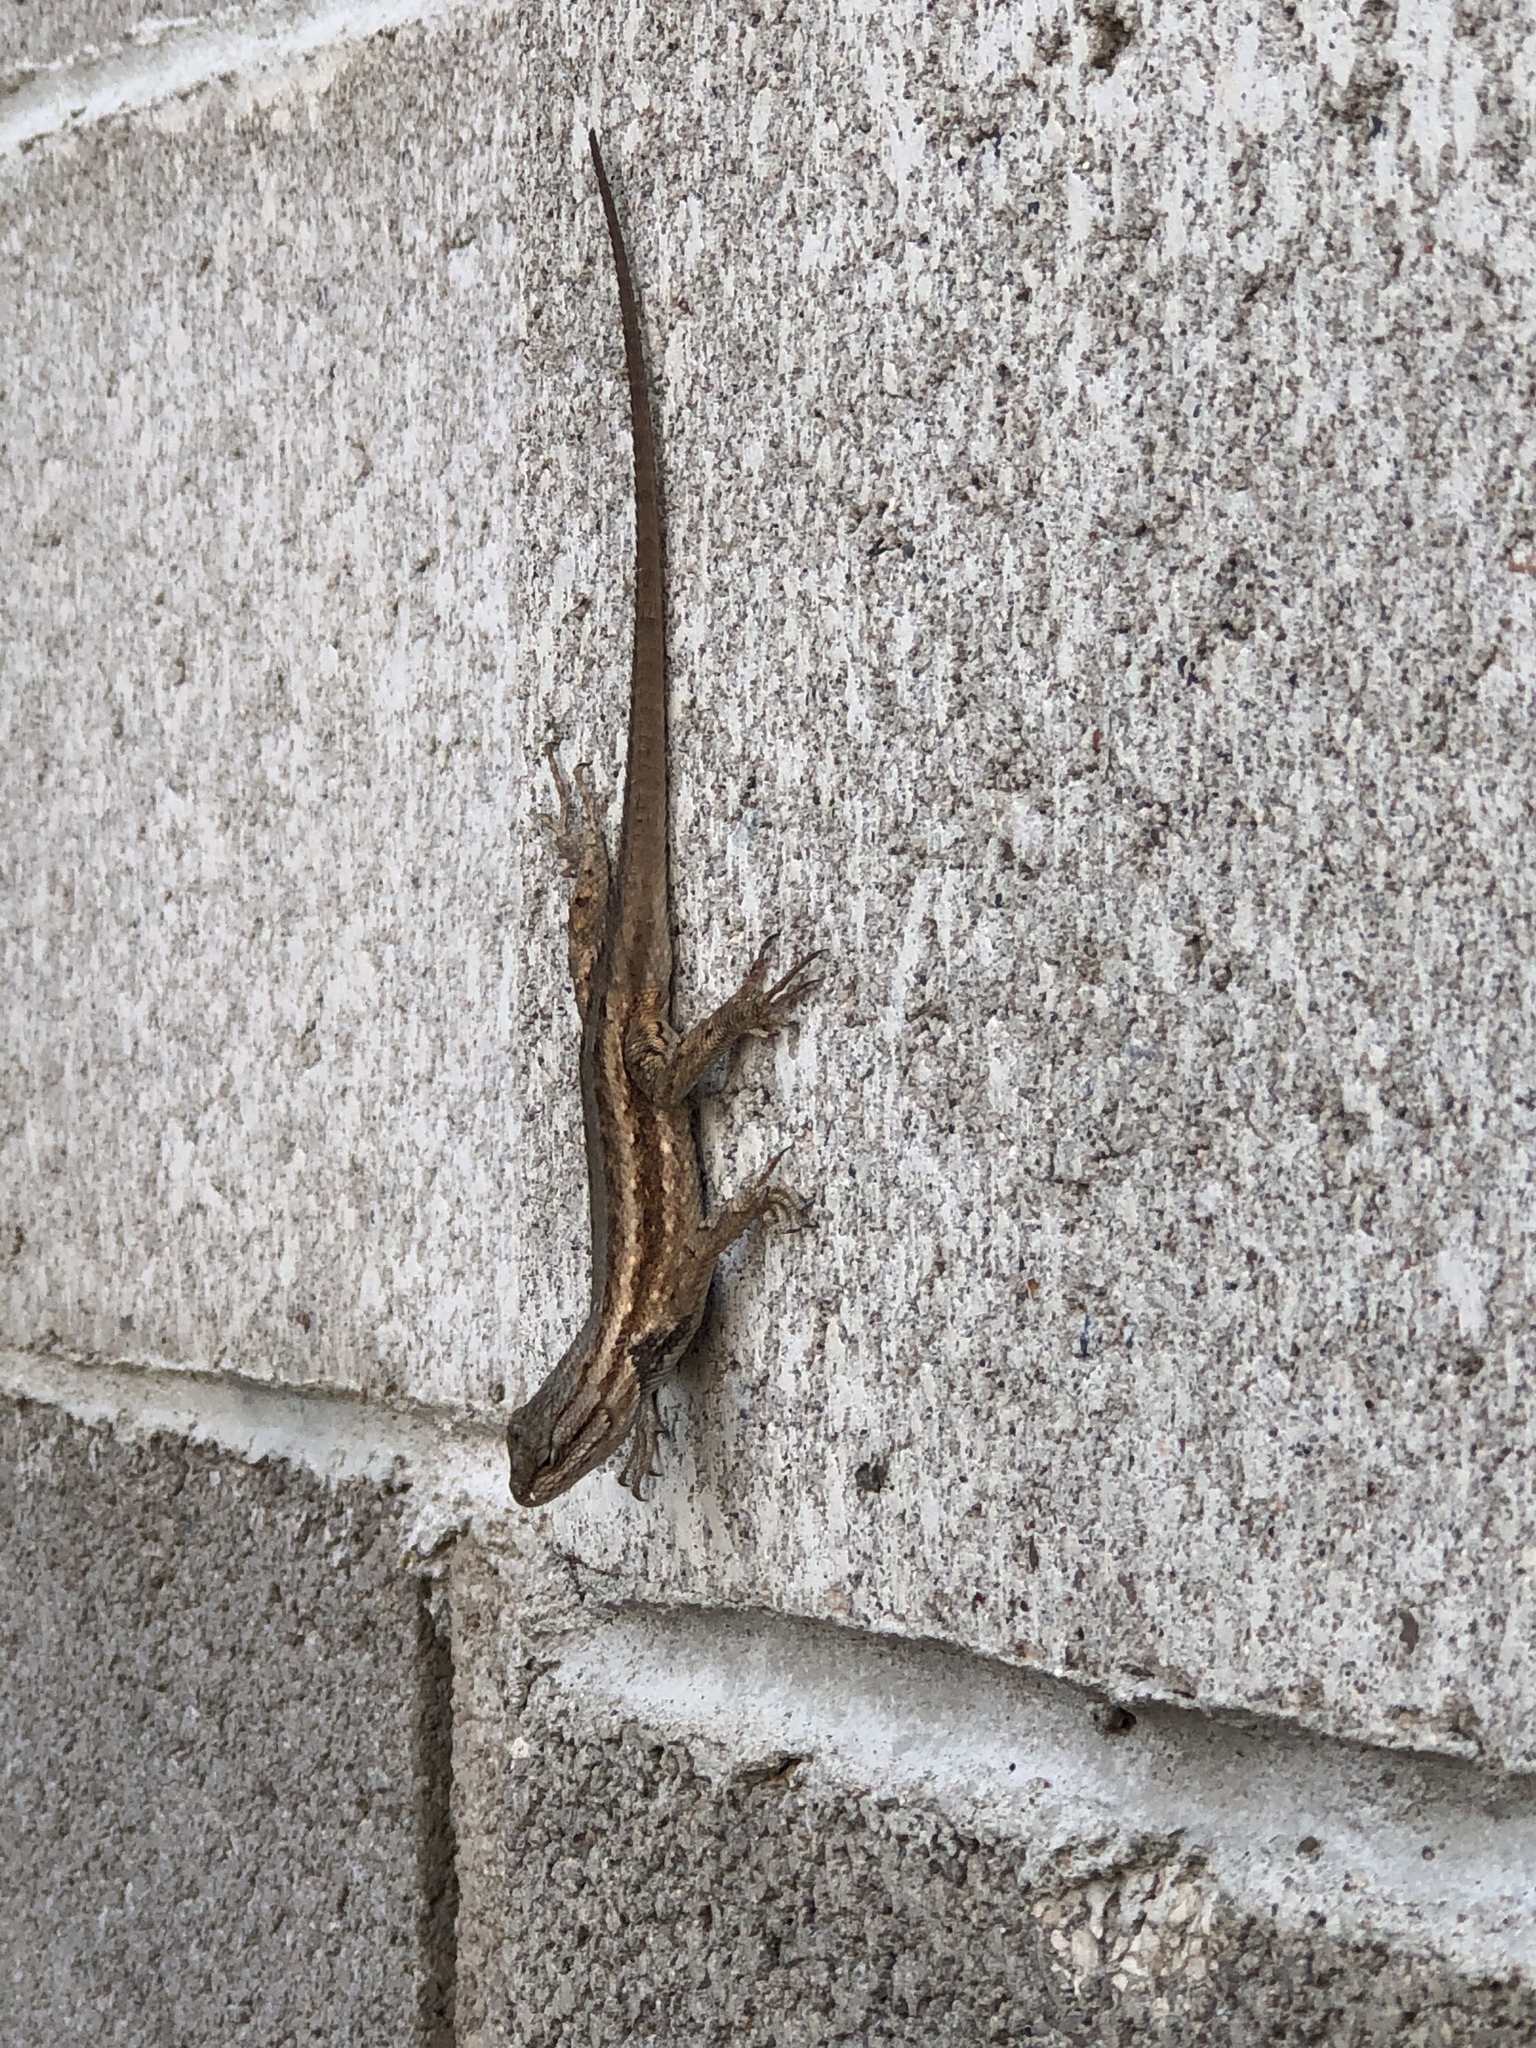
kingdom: Animalia
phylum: Chordata
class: Squamata
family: Phrynosomatidae
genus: Sceloporus
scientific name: Sceloporus cowlesi
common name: White sands prairie lizard
